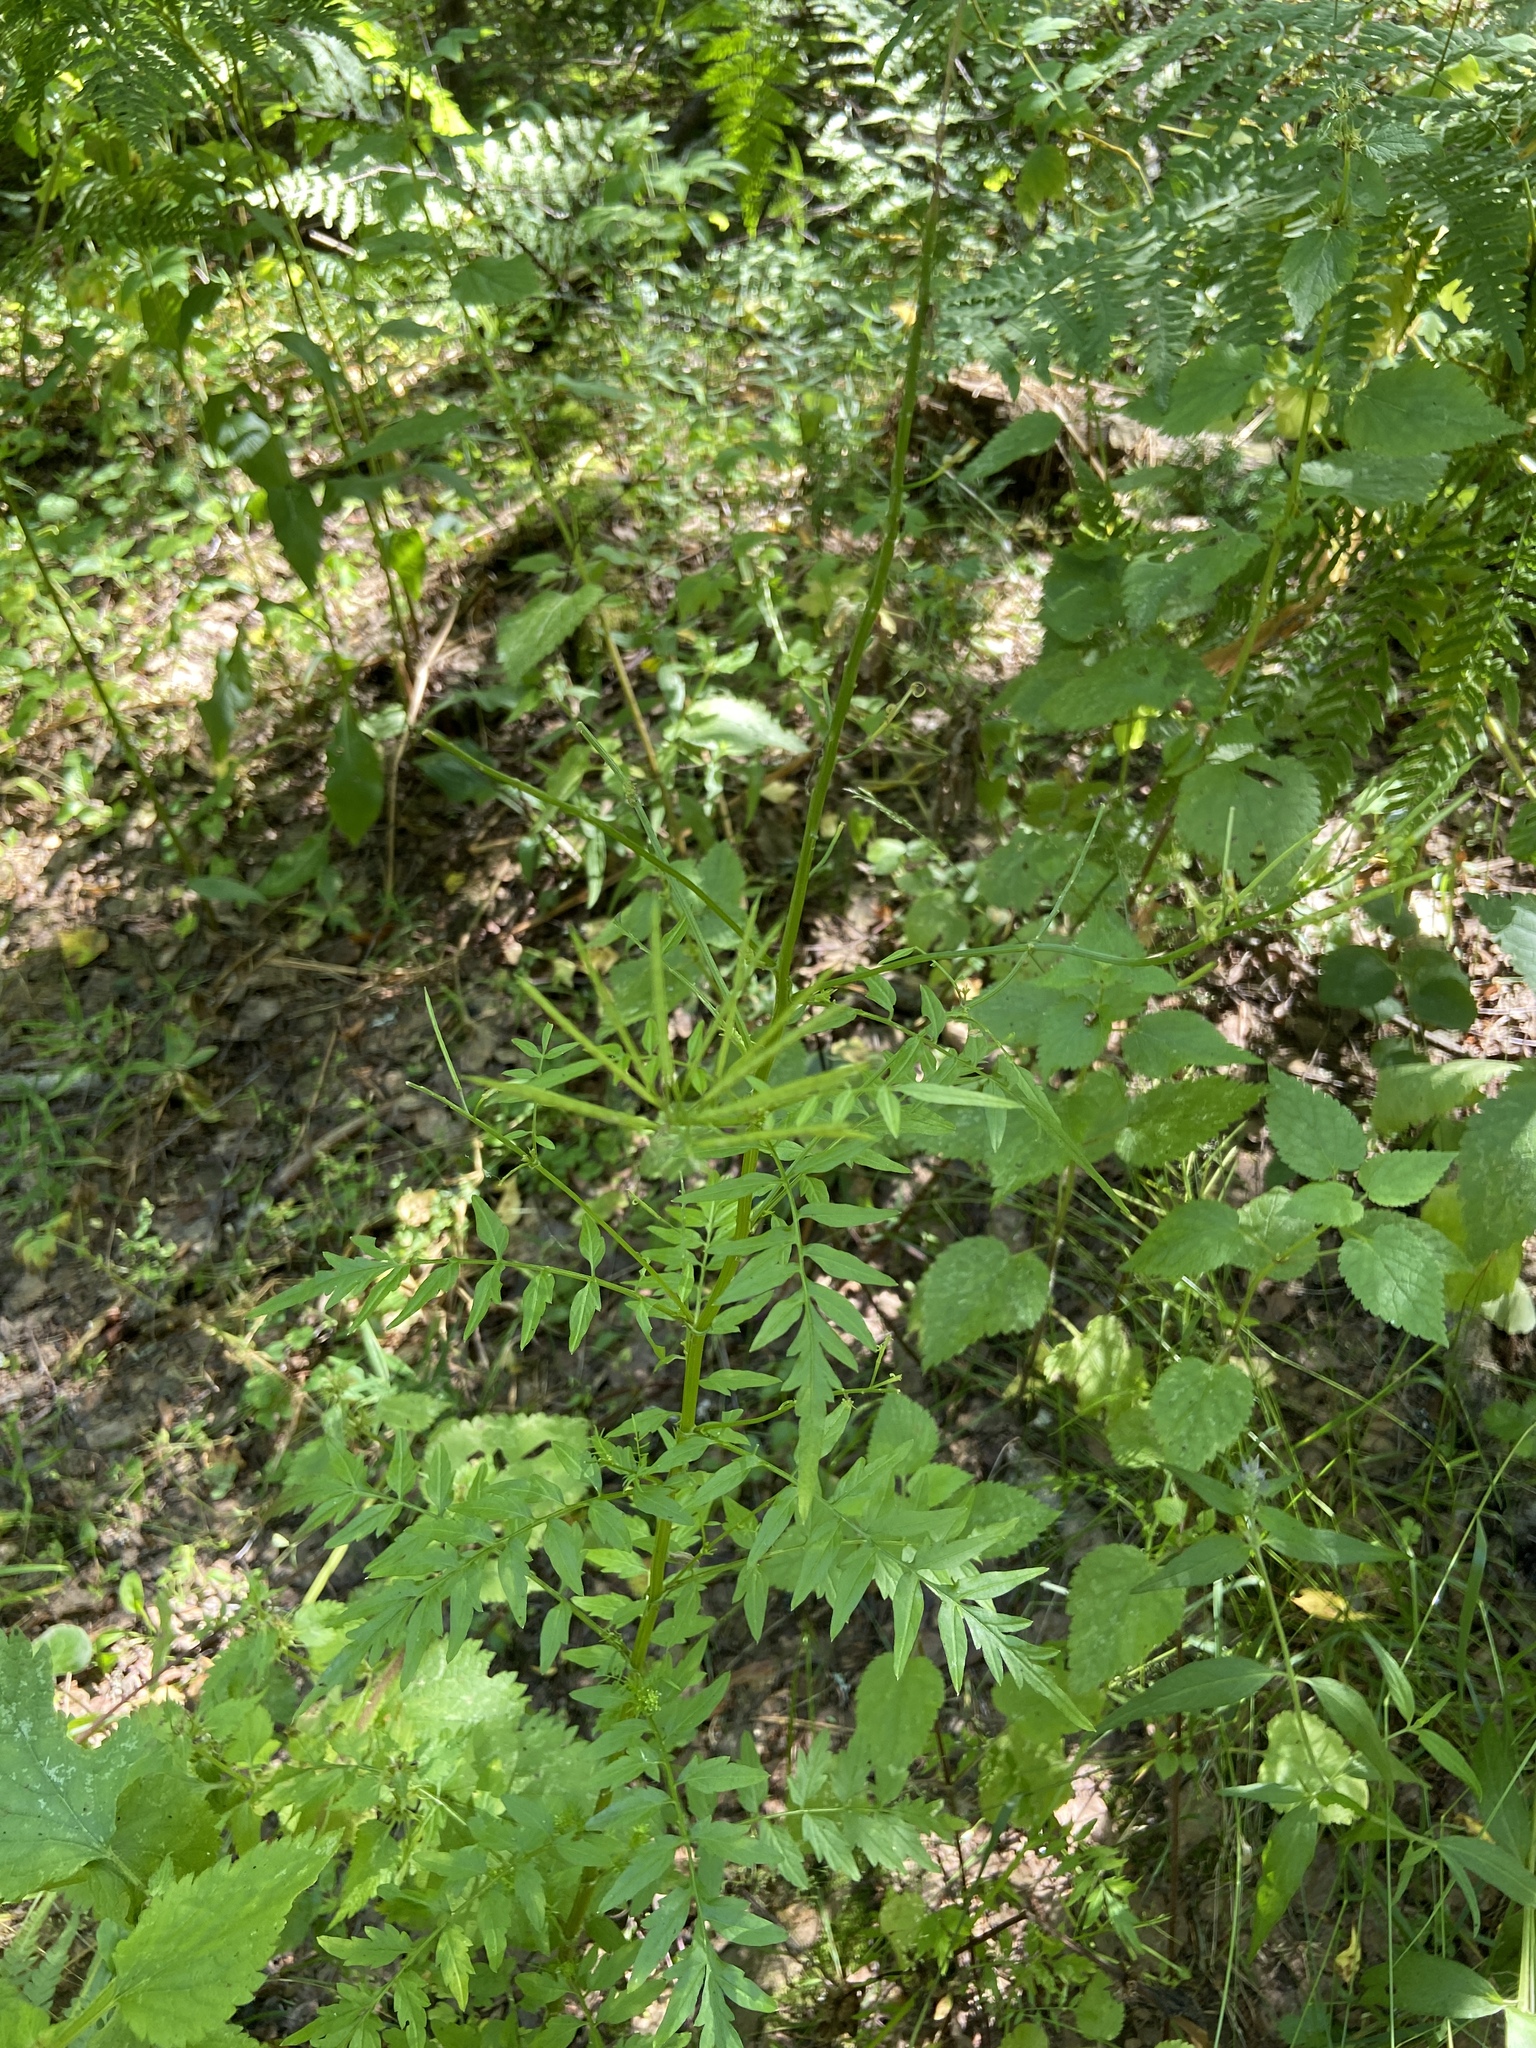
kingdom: Plantae
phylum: Tracheophyta
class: Magnoliopsida
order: Brassicales
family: Brassicaceae
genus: Cardamine
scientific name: Cardamine impatiens
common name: Narrow-leaved bitter-cress
